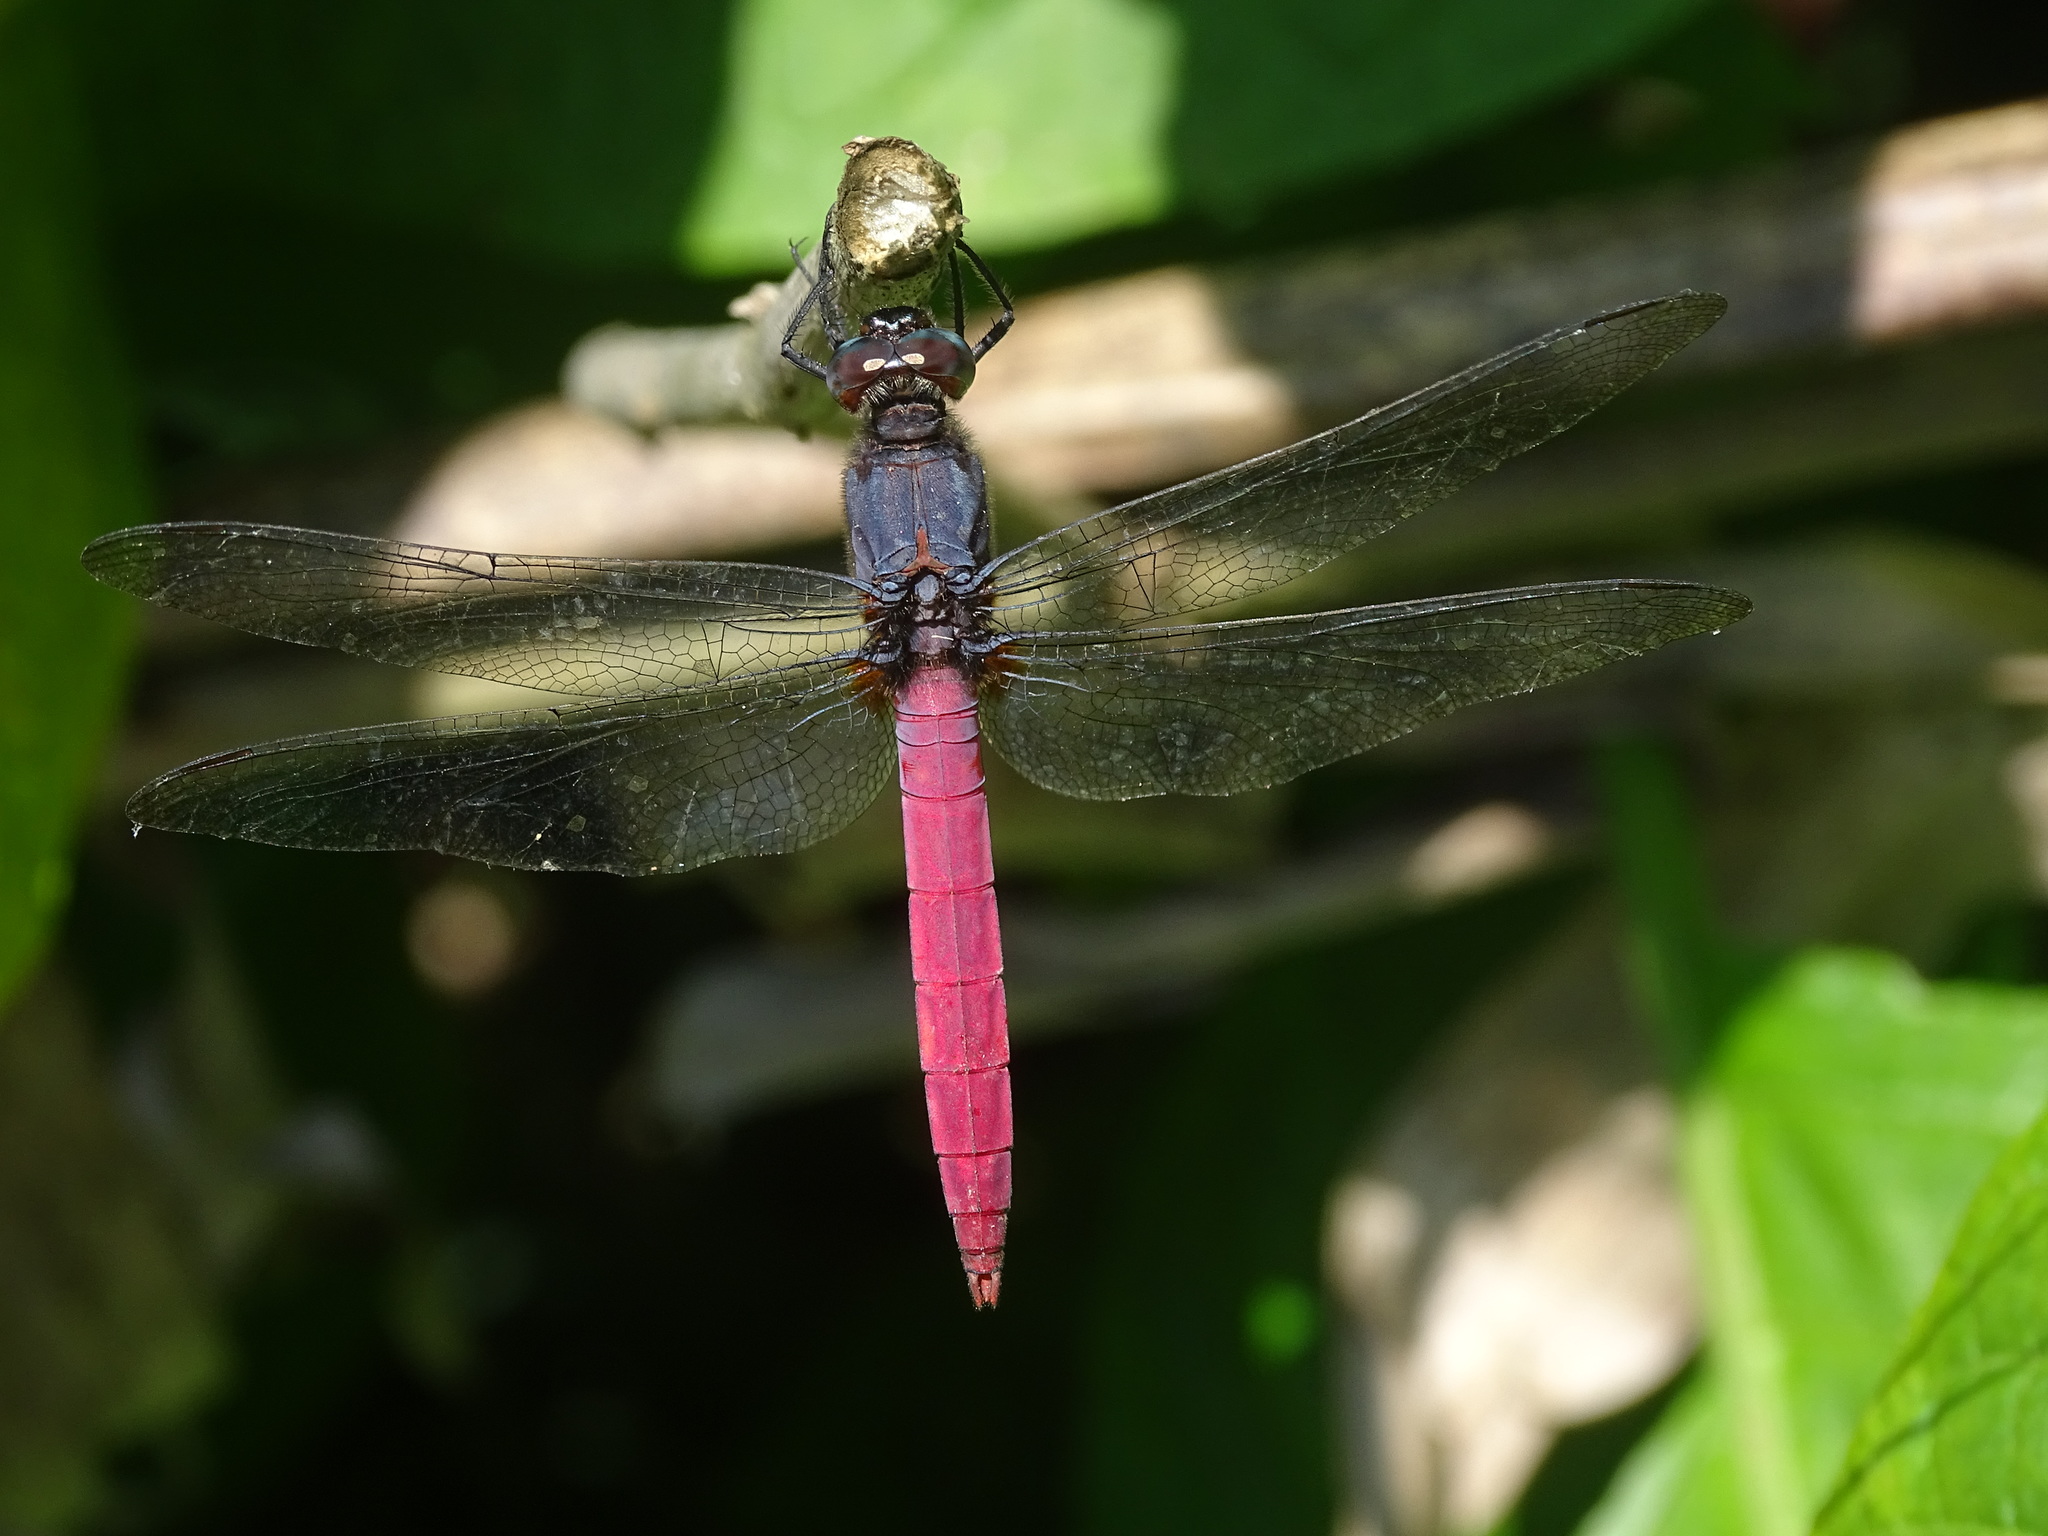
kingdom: Animalia
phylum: Arthropoda
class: Insecta
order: Odonata
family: Libellulidae
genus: Orthetrum
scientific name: Orthetrum pruinosum
